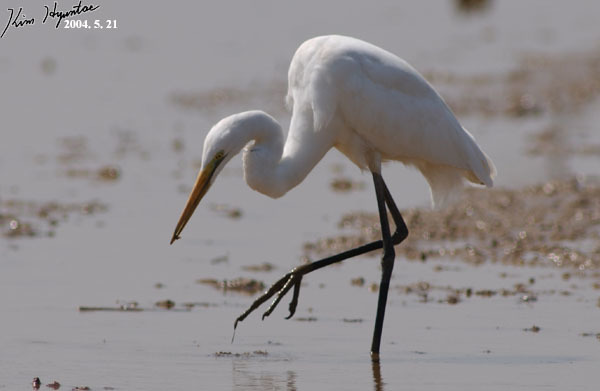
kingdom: Animalia
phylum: Chordata
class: Aves
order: Pelecaniformes
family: Ardeidae
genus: Ardea
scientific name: Ardea alba
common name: Great egret
